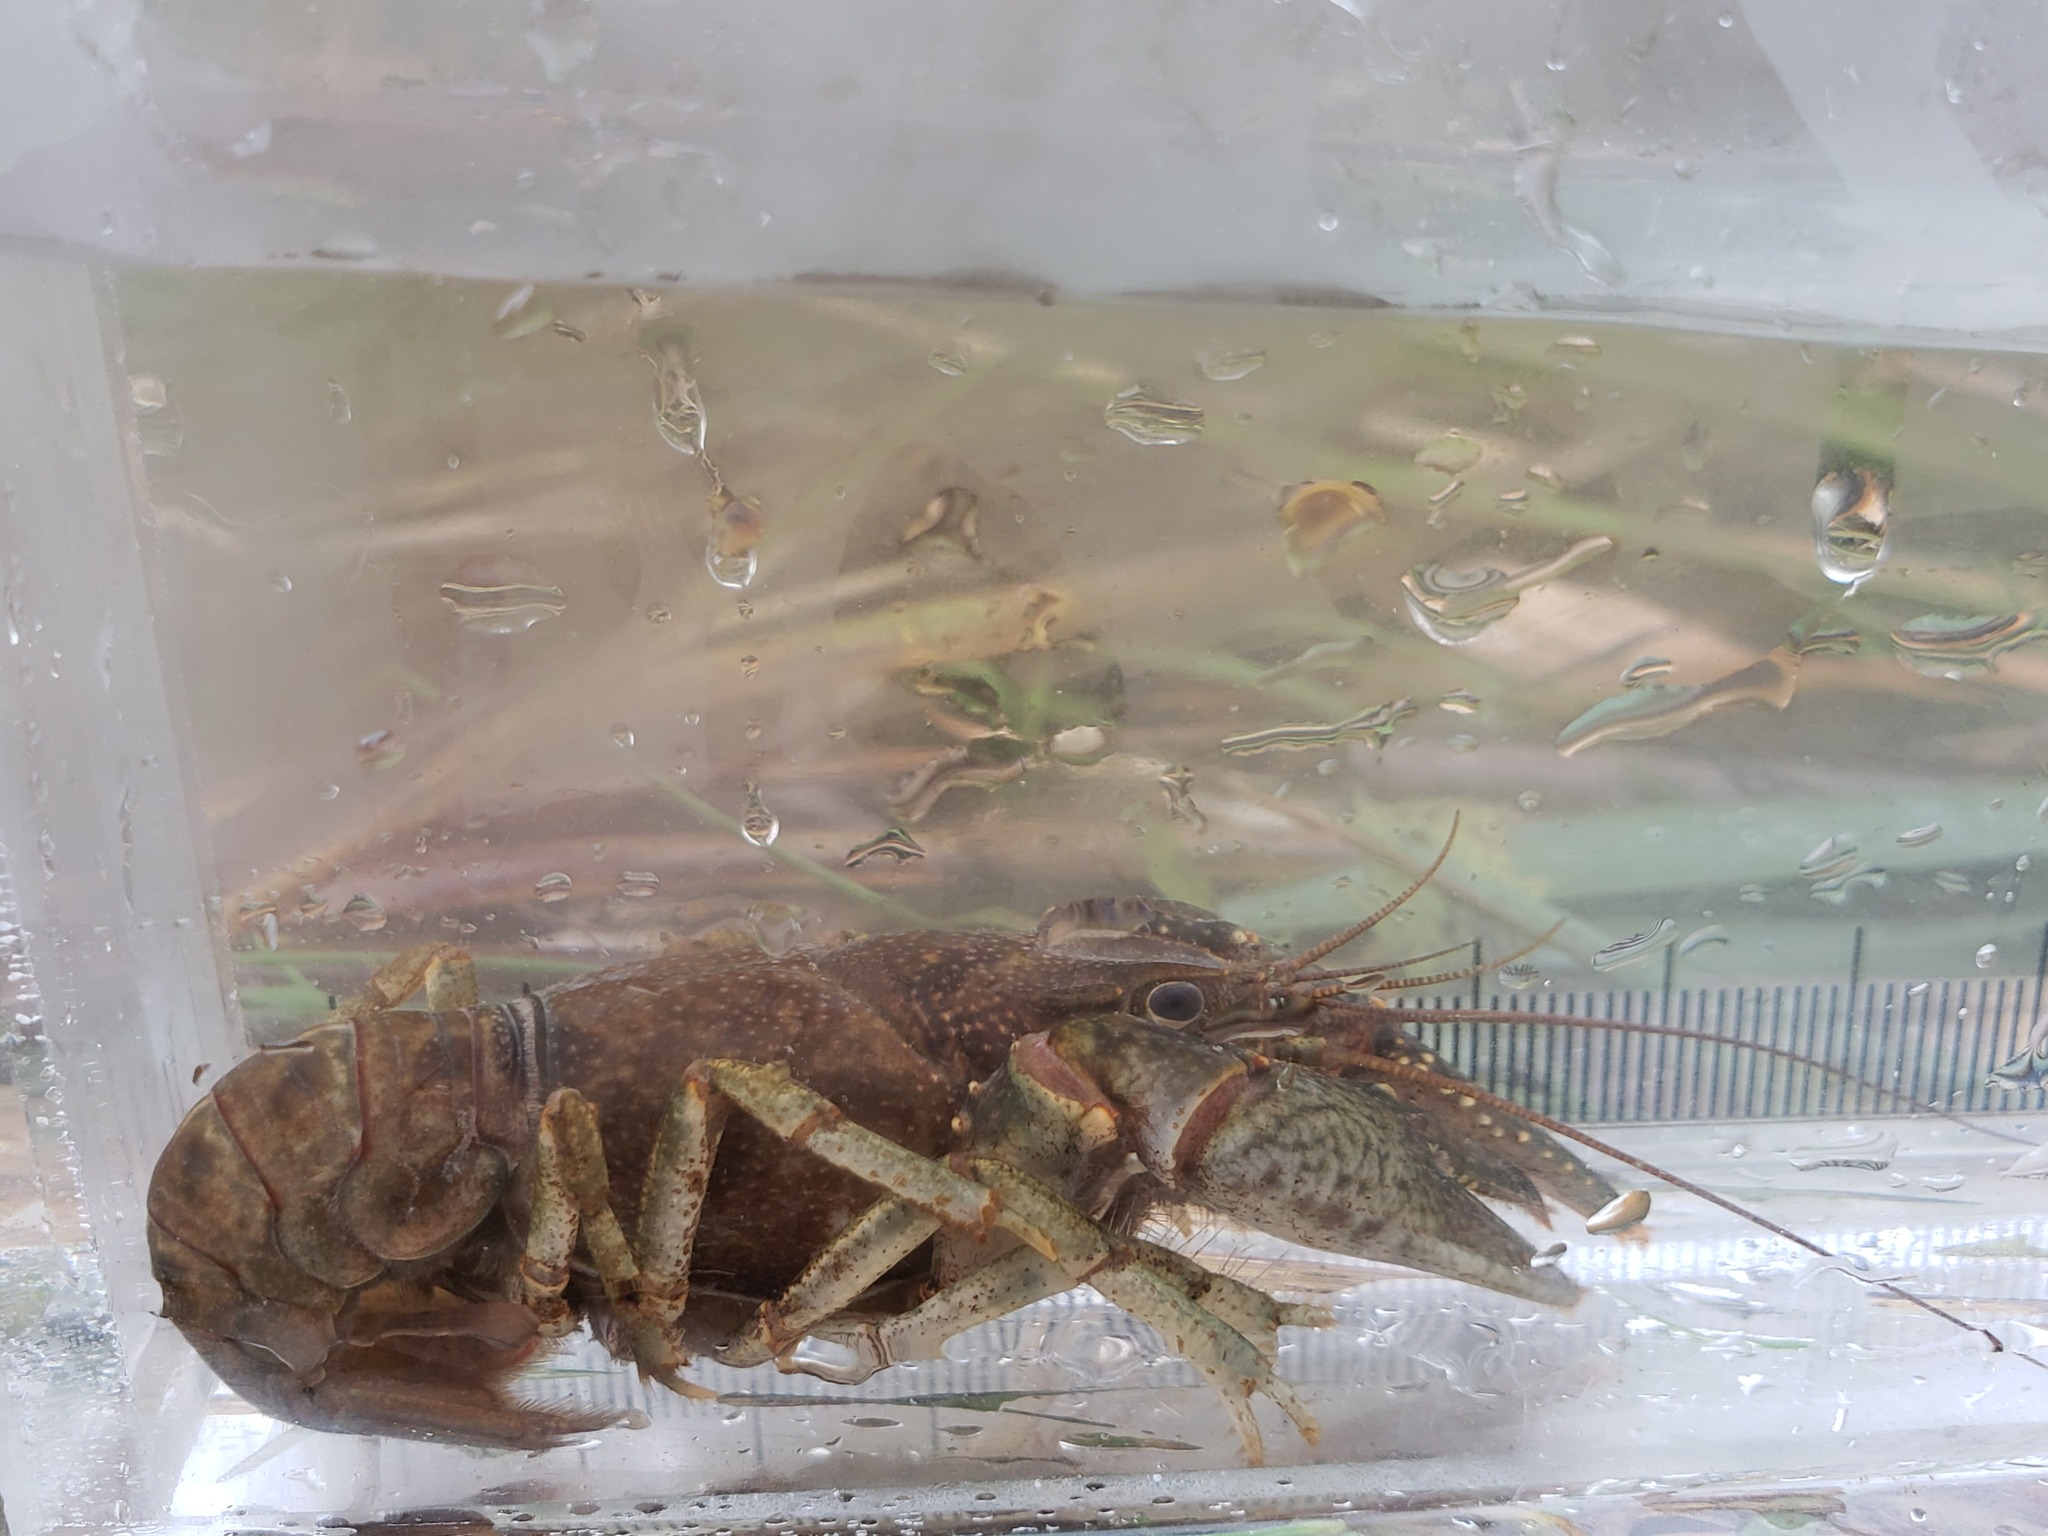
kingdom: Animalia
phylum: Arthropoda
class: Malacostraca
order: Decapoda
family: Cambaridae
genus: Faxonius
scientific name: Faxonius virilis
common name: Virile crayfish
